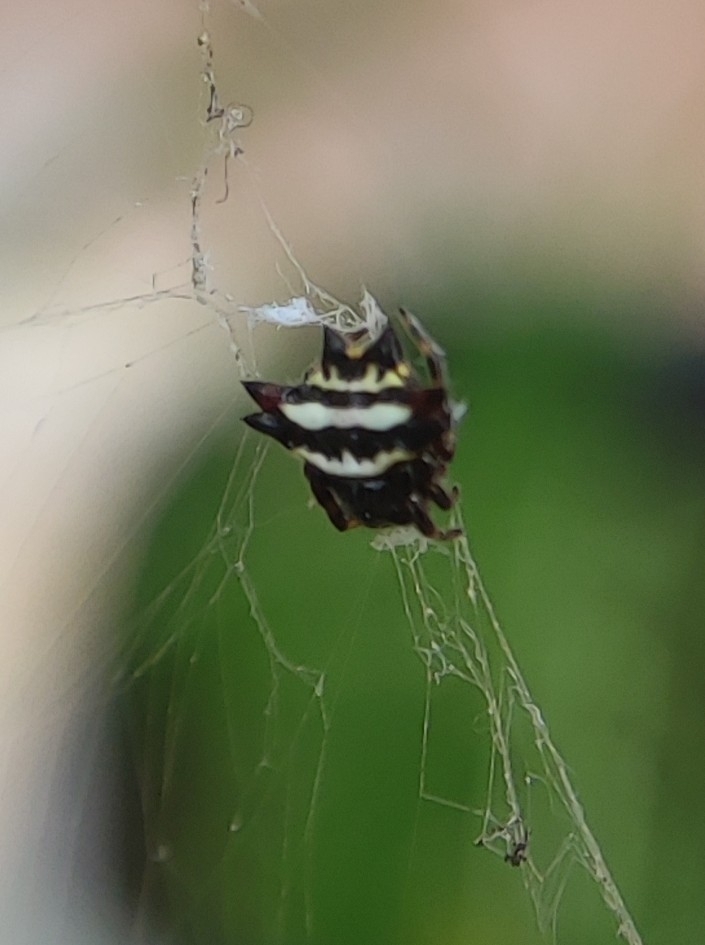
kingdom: Animalia
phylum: Arthropoda
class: Arachnida
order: Araneae
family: Araneidae
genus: Gasteracantha
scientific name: Gasteracantha geminata
